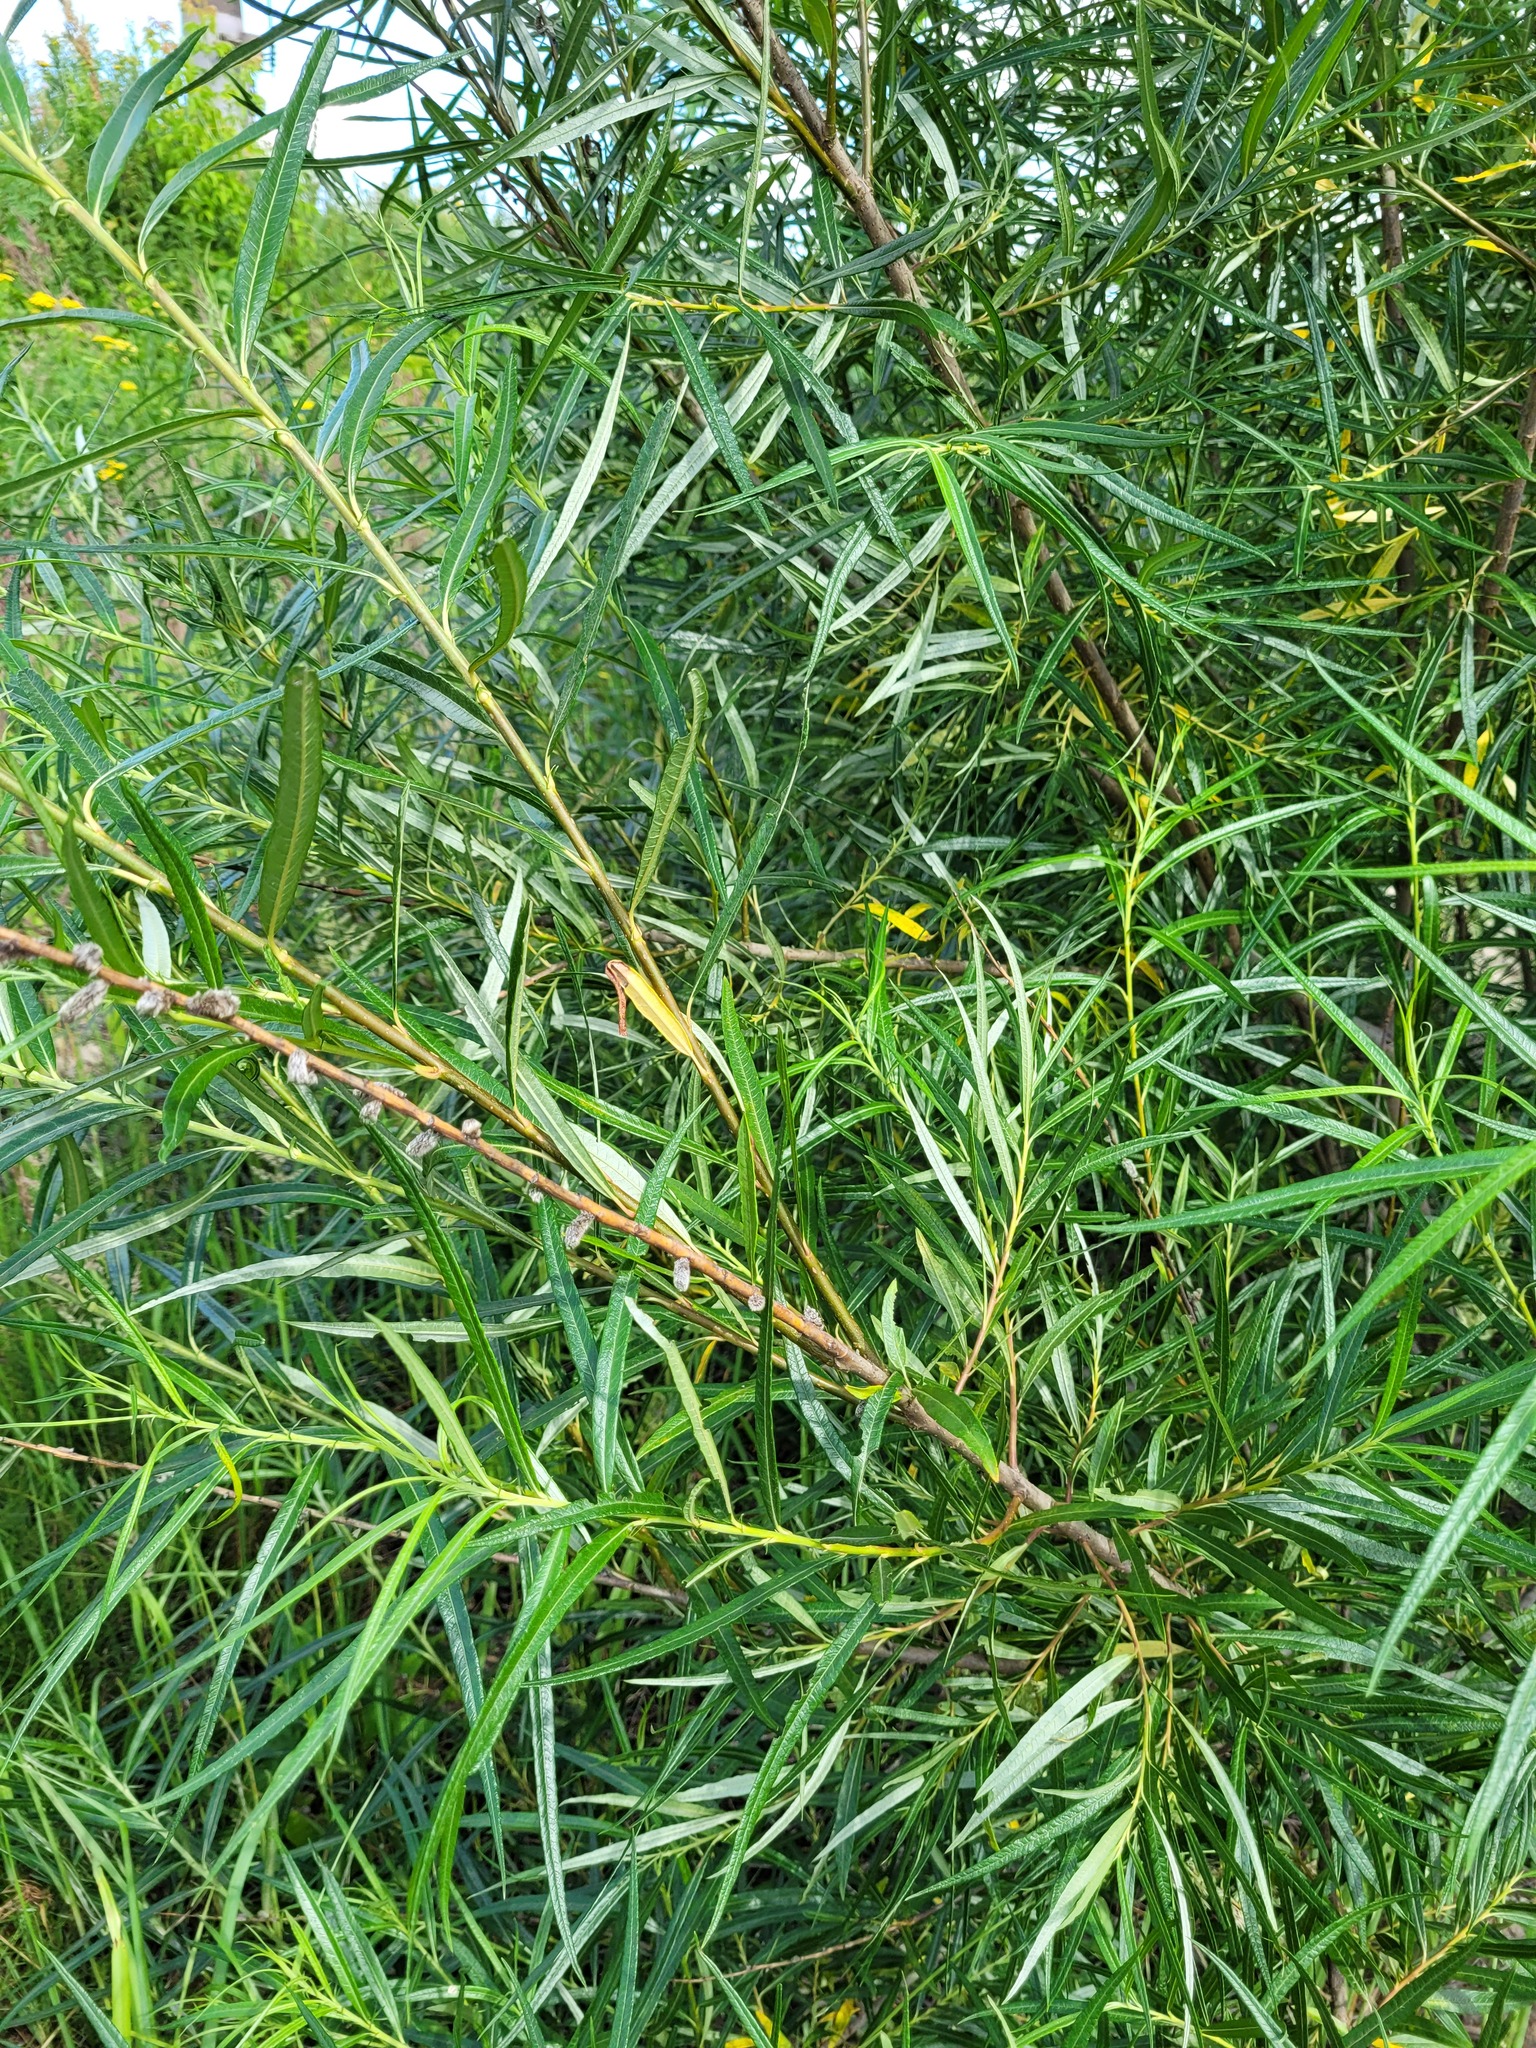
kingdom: Plantae
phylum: Tracheophyta
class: Magnoliopsida
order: Malpighiales
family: Salicaceae
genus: Salix
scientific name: Salix viminalis
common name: Osier
